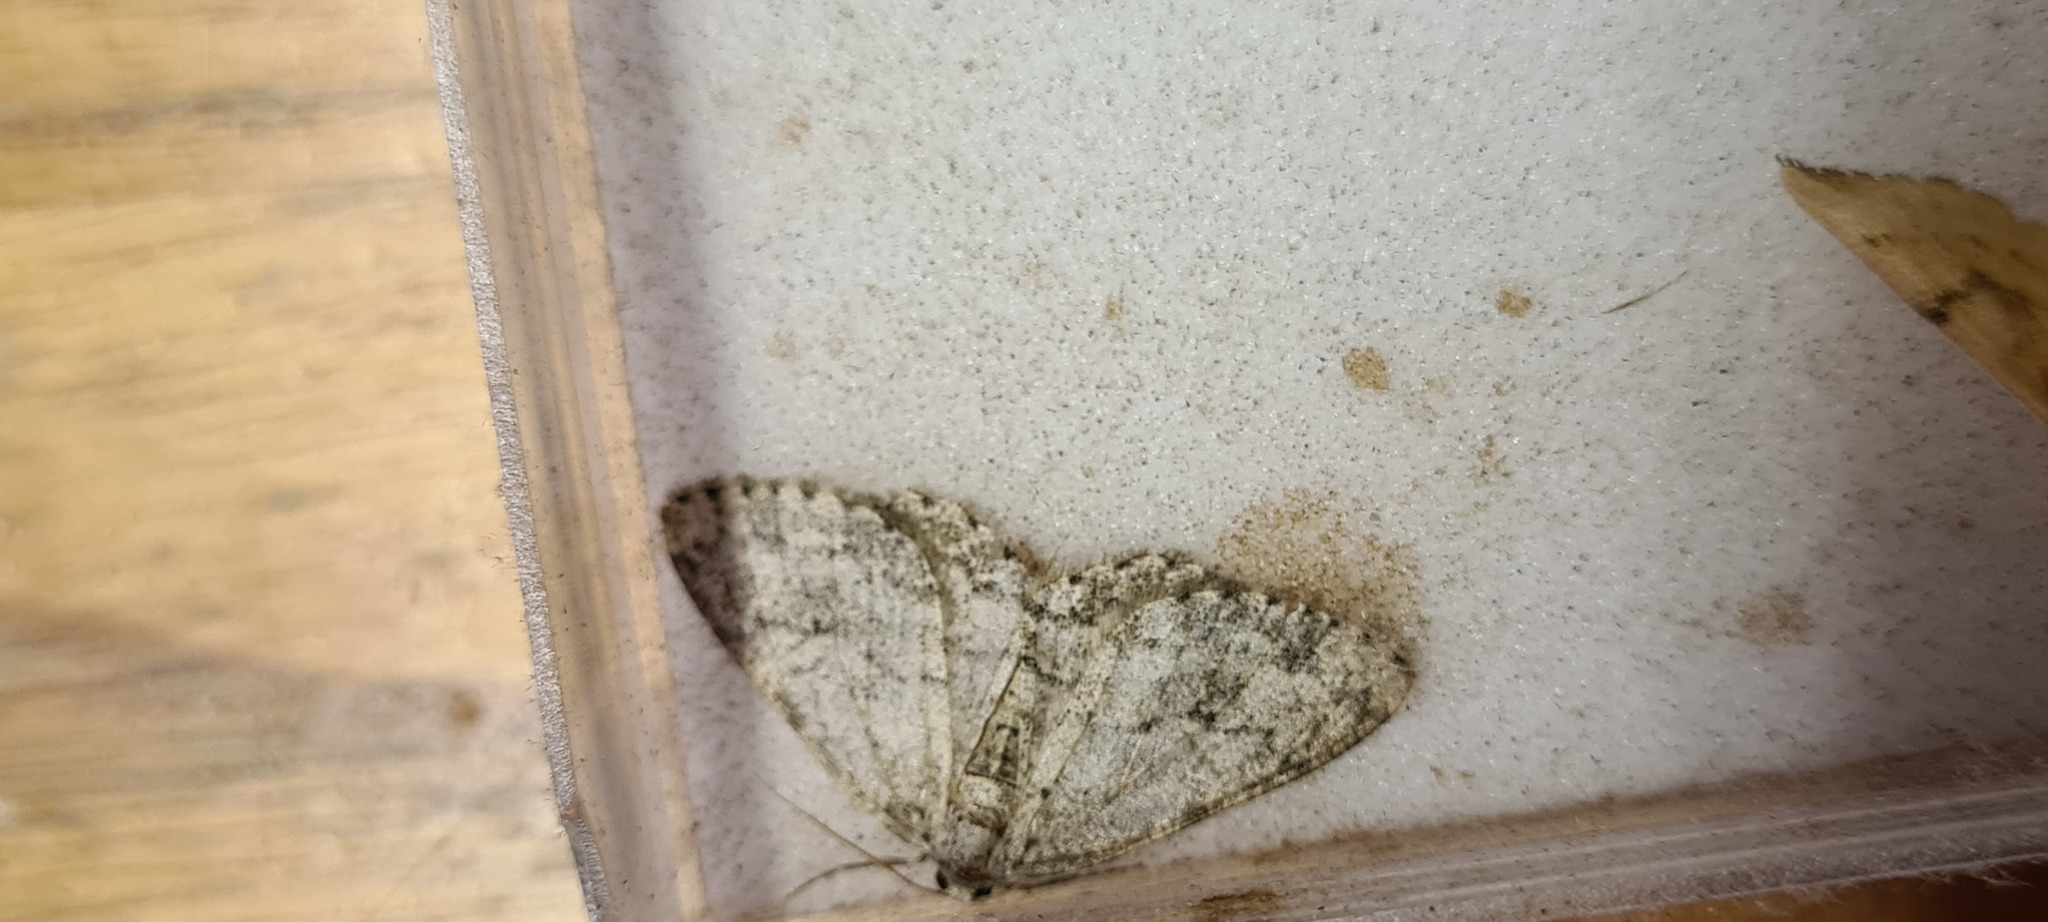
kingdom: Animalia
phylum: Arthropoda
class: Insecta
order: Lepidoptera
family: Geometridae
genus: Ectropis
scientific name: Ectropis crepuscularia
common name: Engrailed
